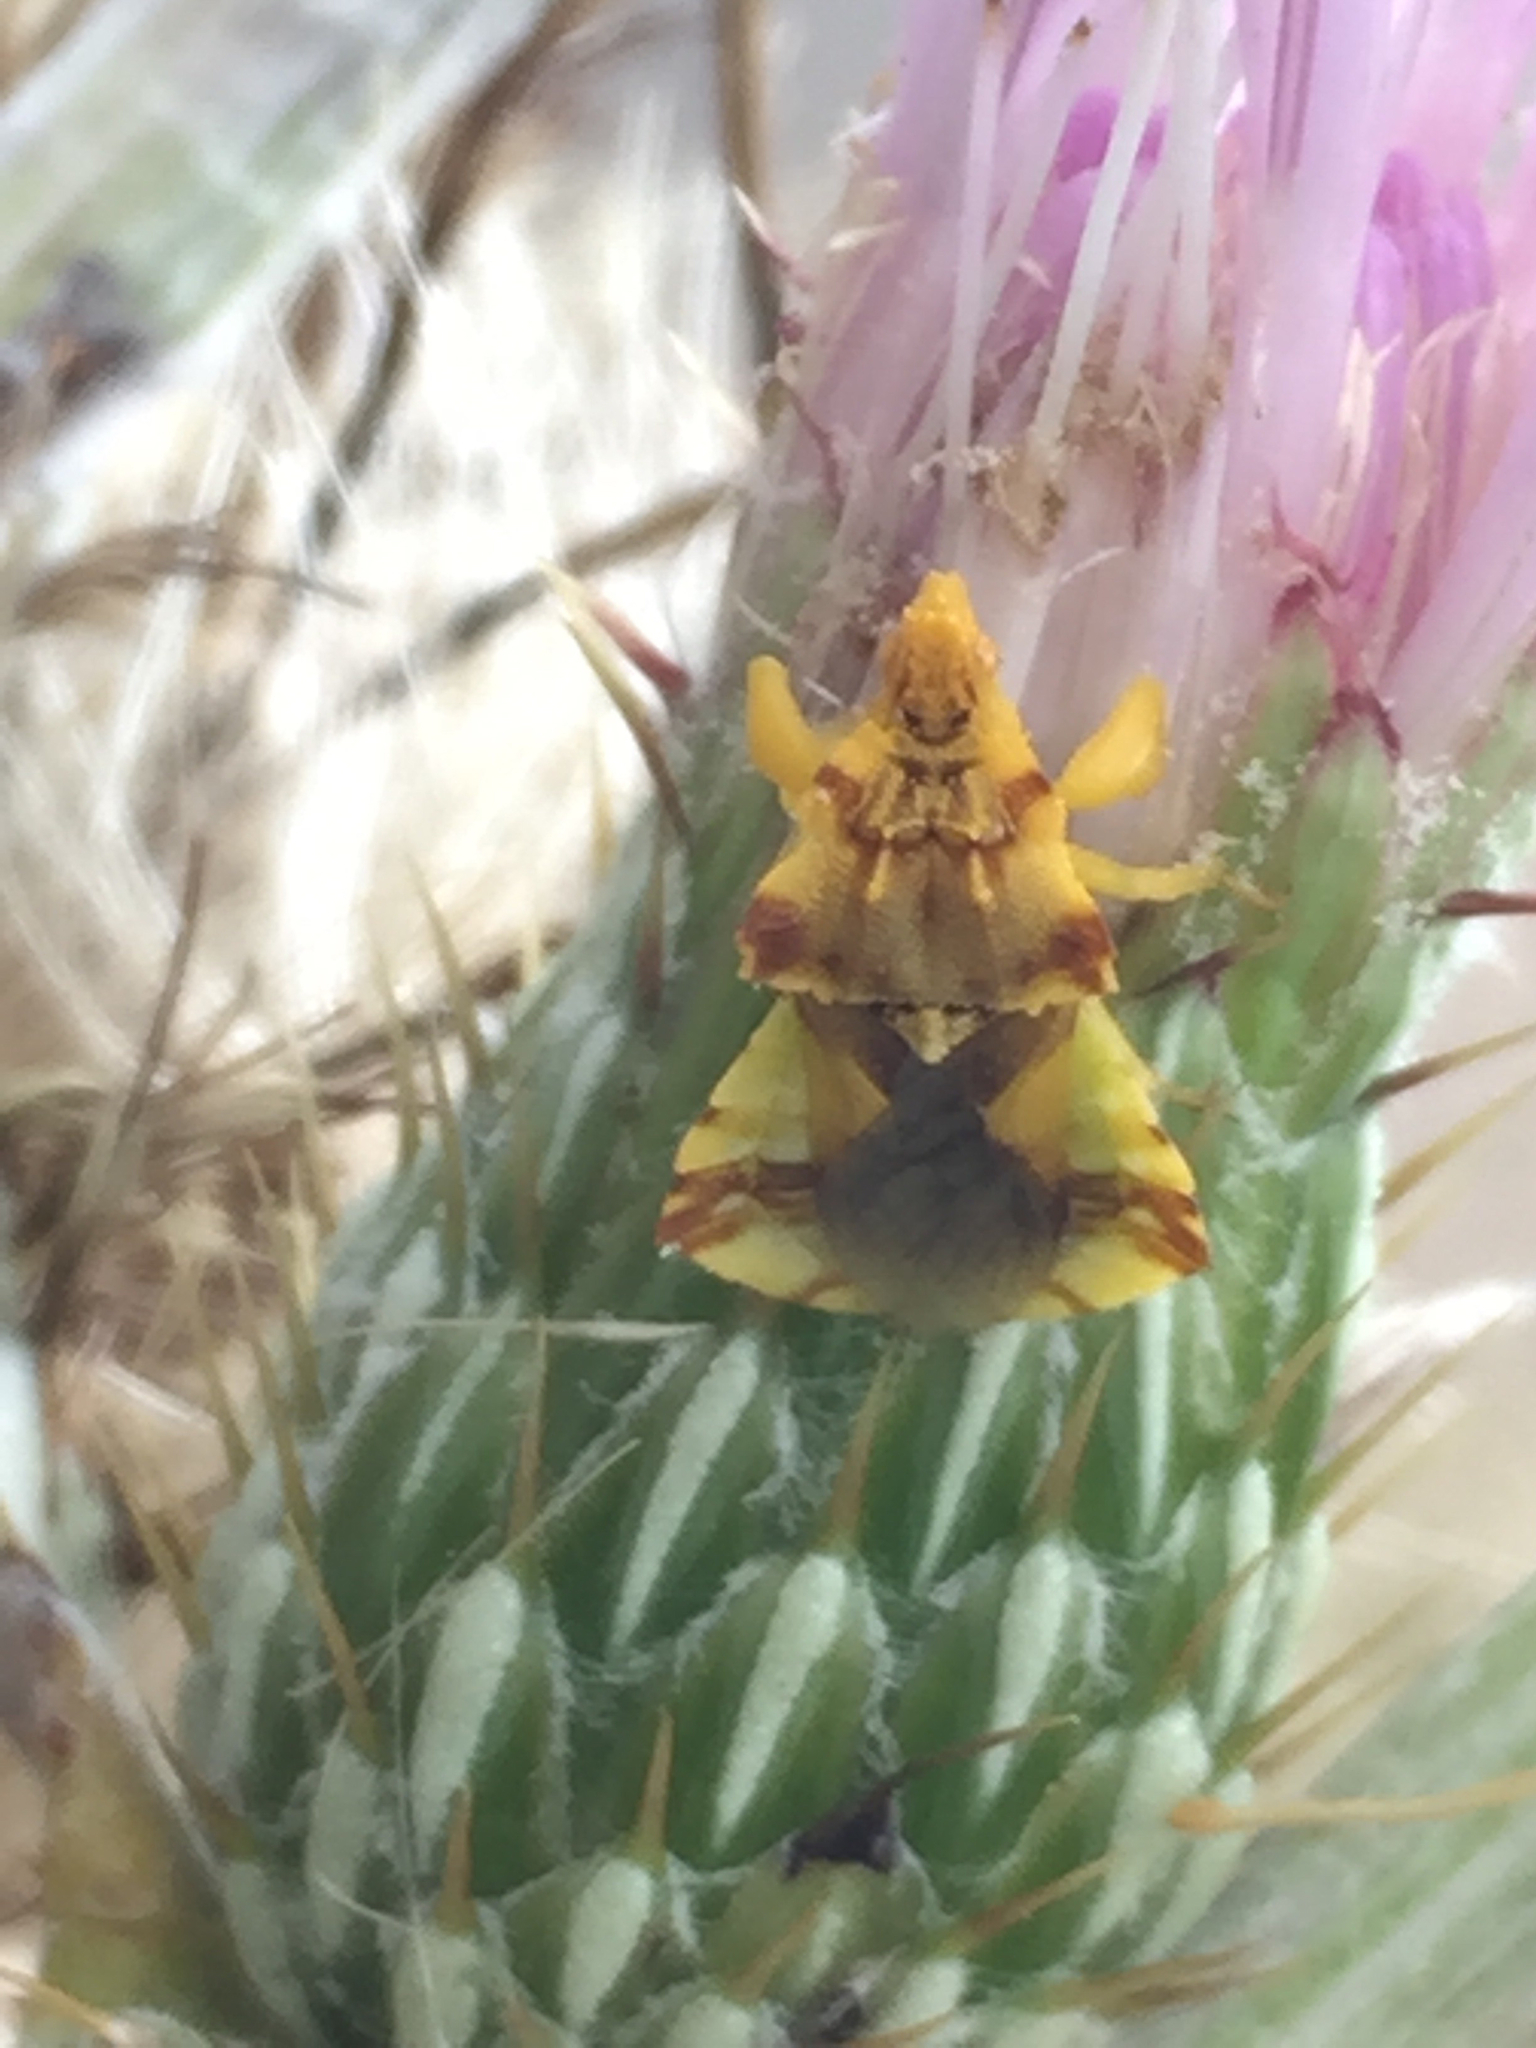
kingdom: Animalia
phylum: Arthropoda
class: Insecta
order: Hemiptera
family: Reduviidae
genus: Phymata
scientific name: Phymata americana
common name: Jagged ambush bug
